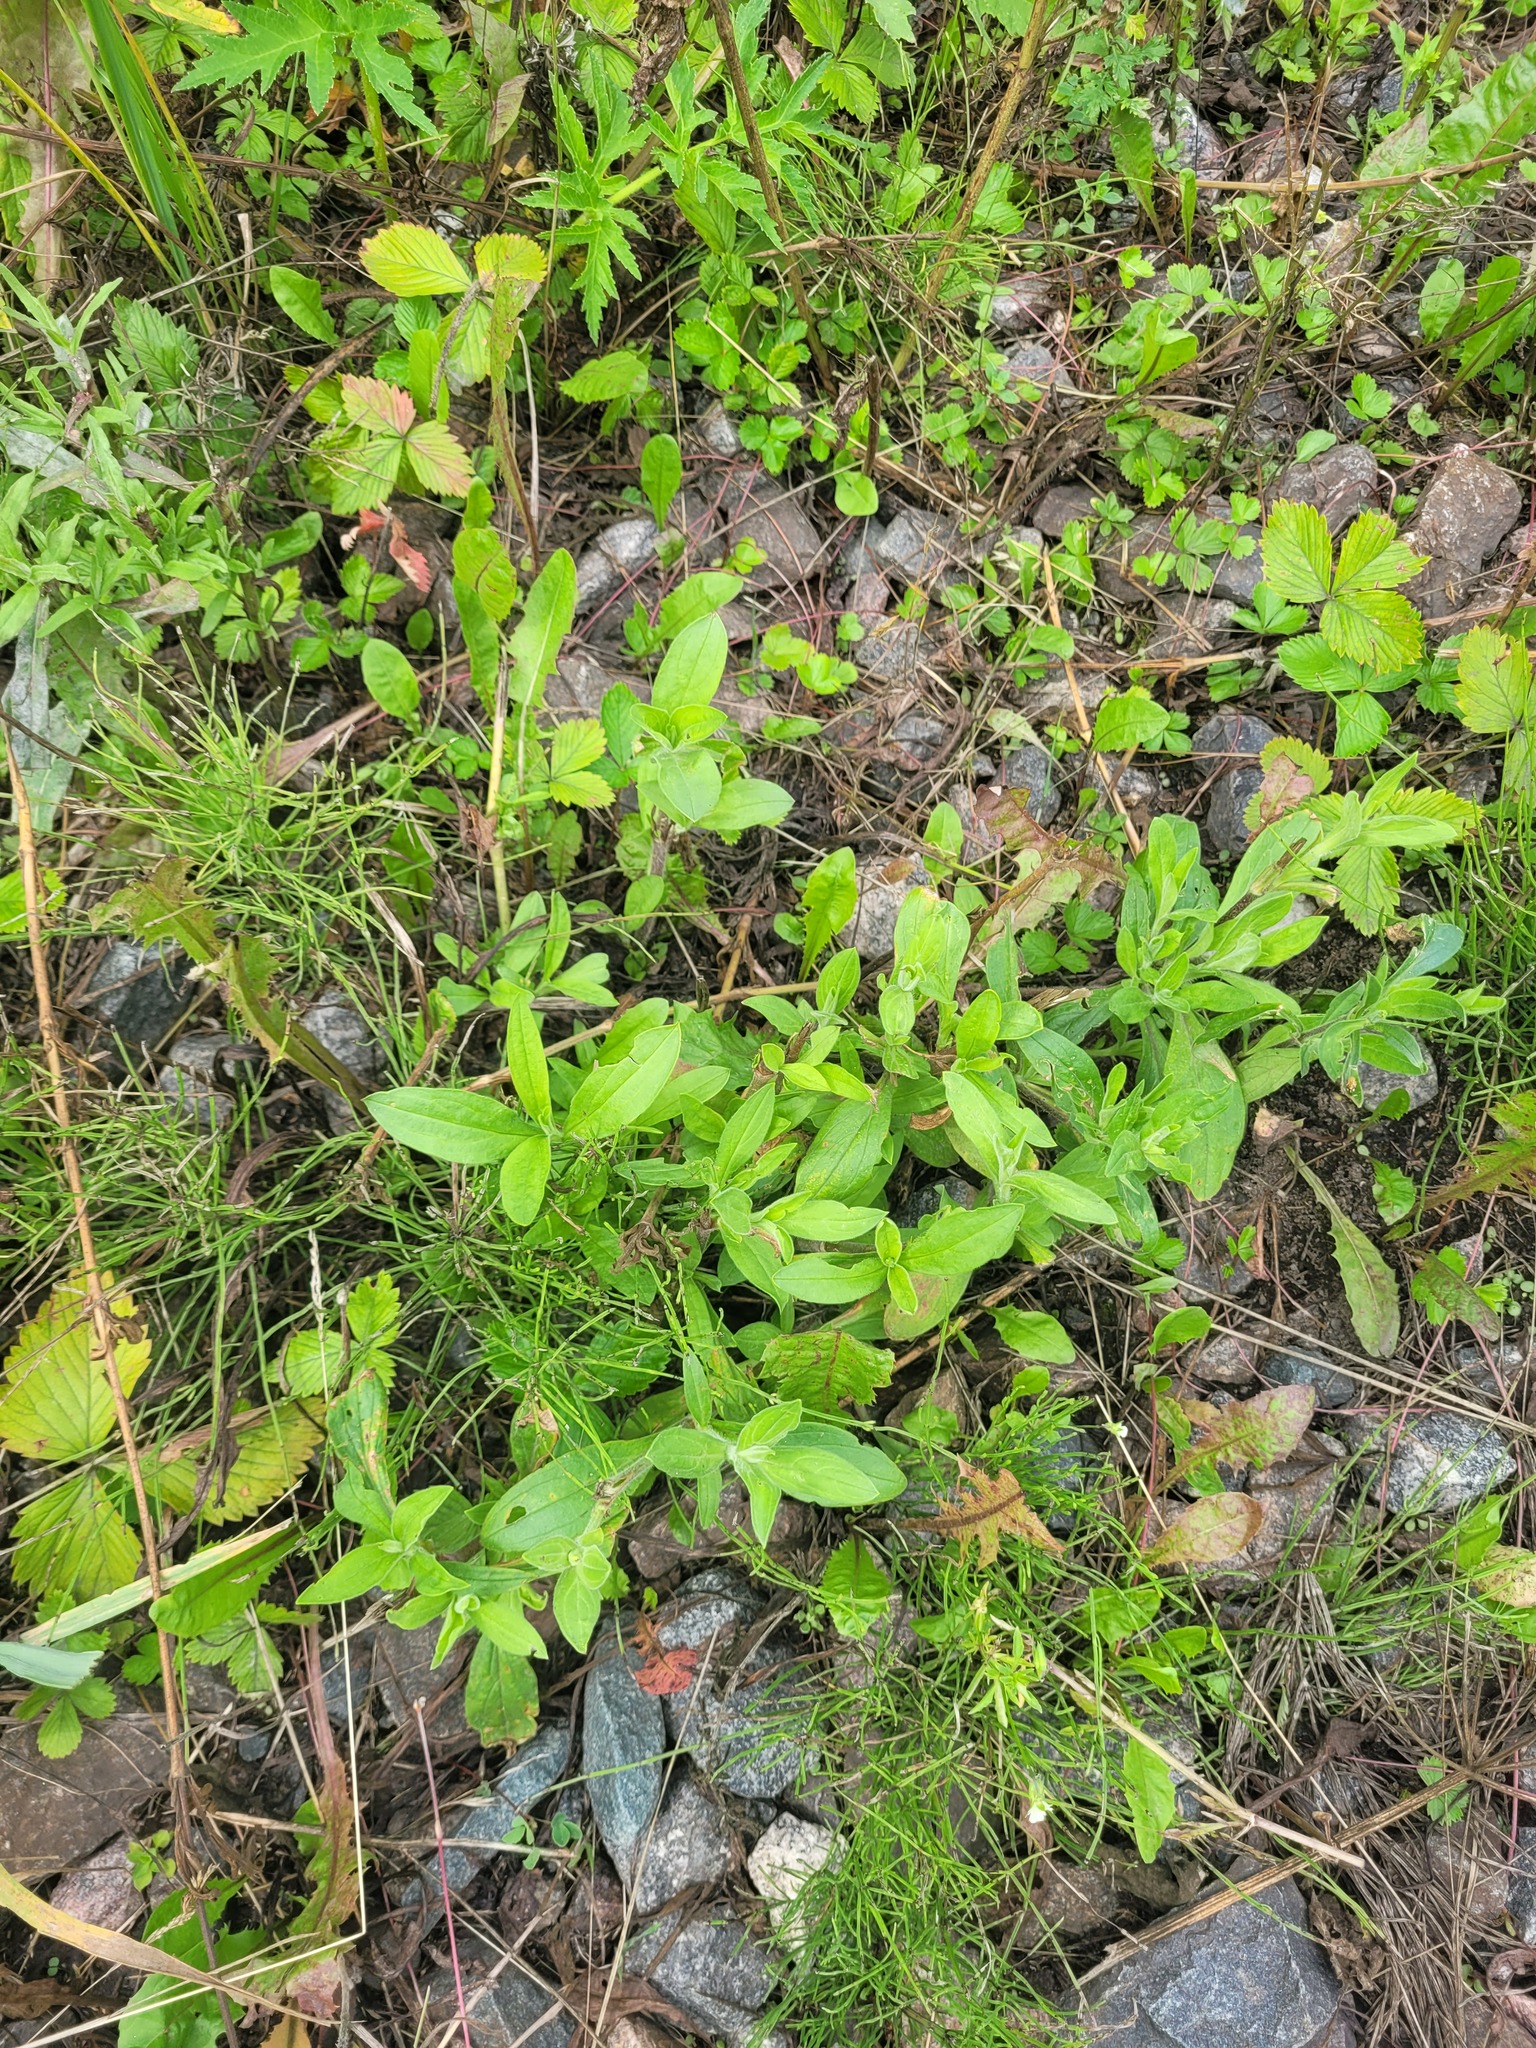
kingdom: Plantae
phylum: Tracheophyta
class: Magnoliopsida
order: Caryophyllales
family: Caryophyllaceae
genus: Silene
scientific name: Silene latifolia
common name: White campion
